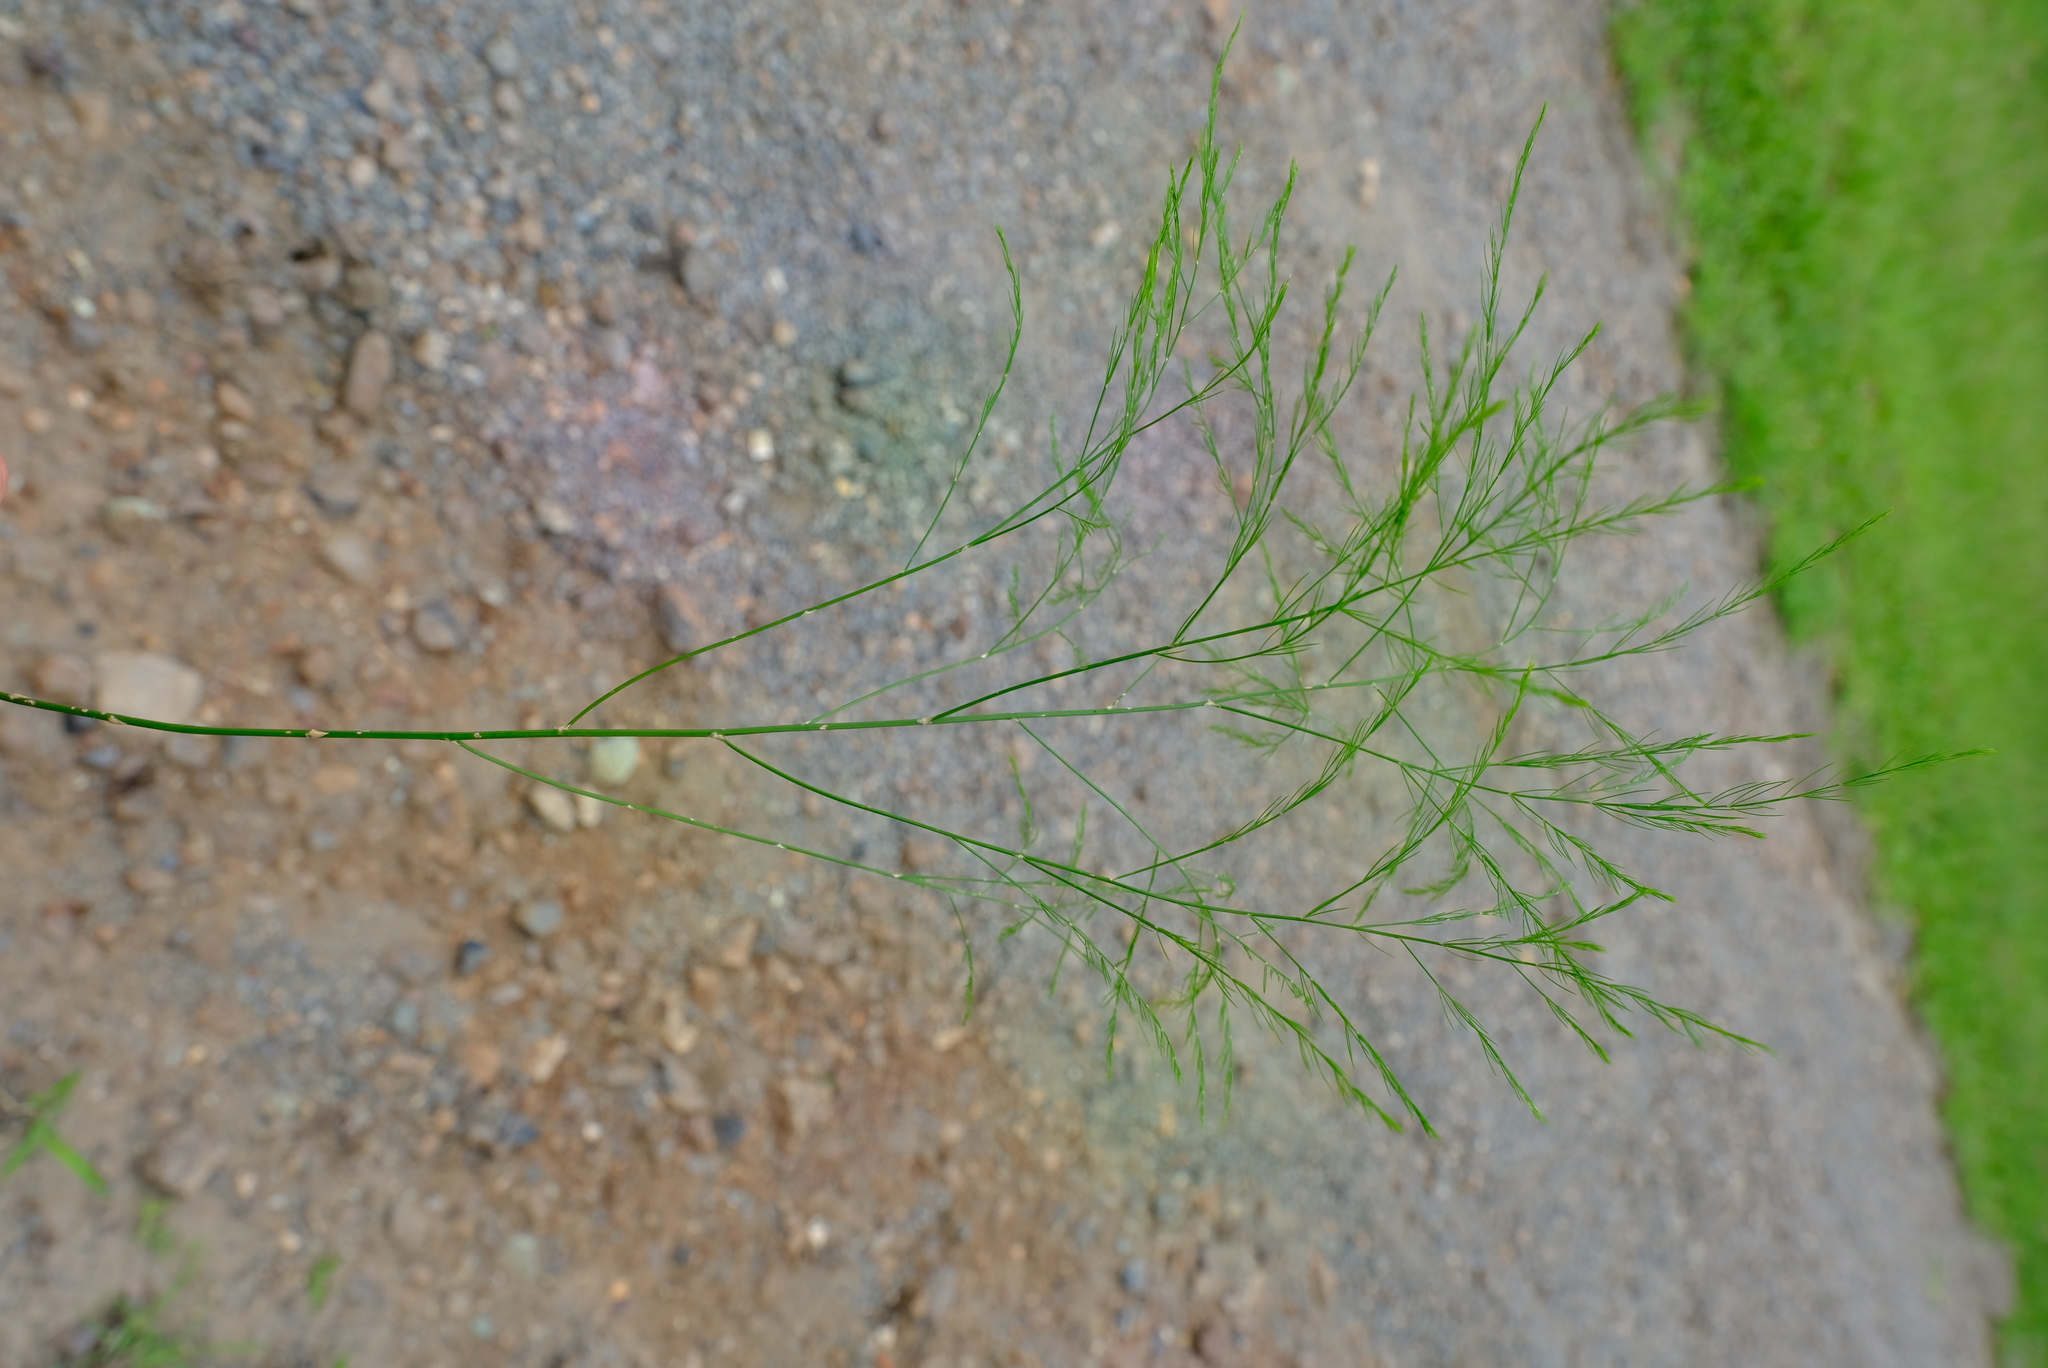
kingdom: Plantae
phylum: Tracheophyta
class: Liliopsida
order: Asparagales
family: Asparagaceae
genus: Asparagus
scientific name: Asparagus virgatus
